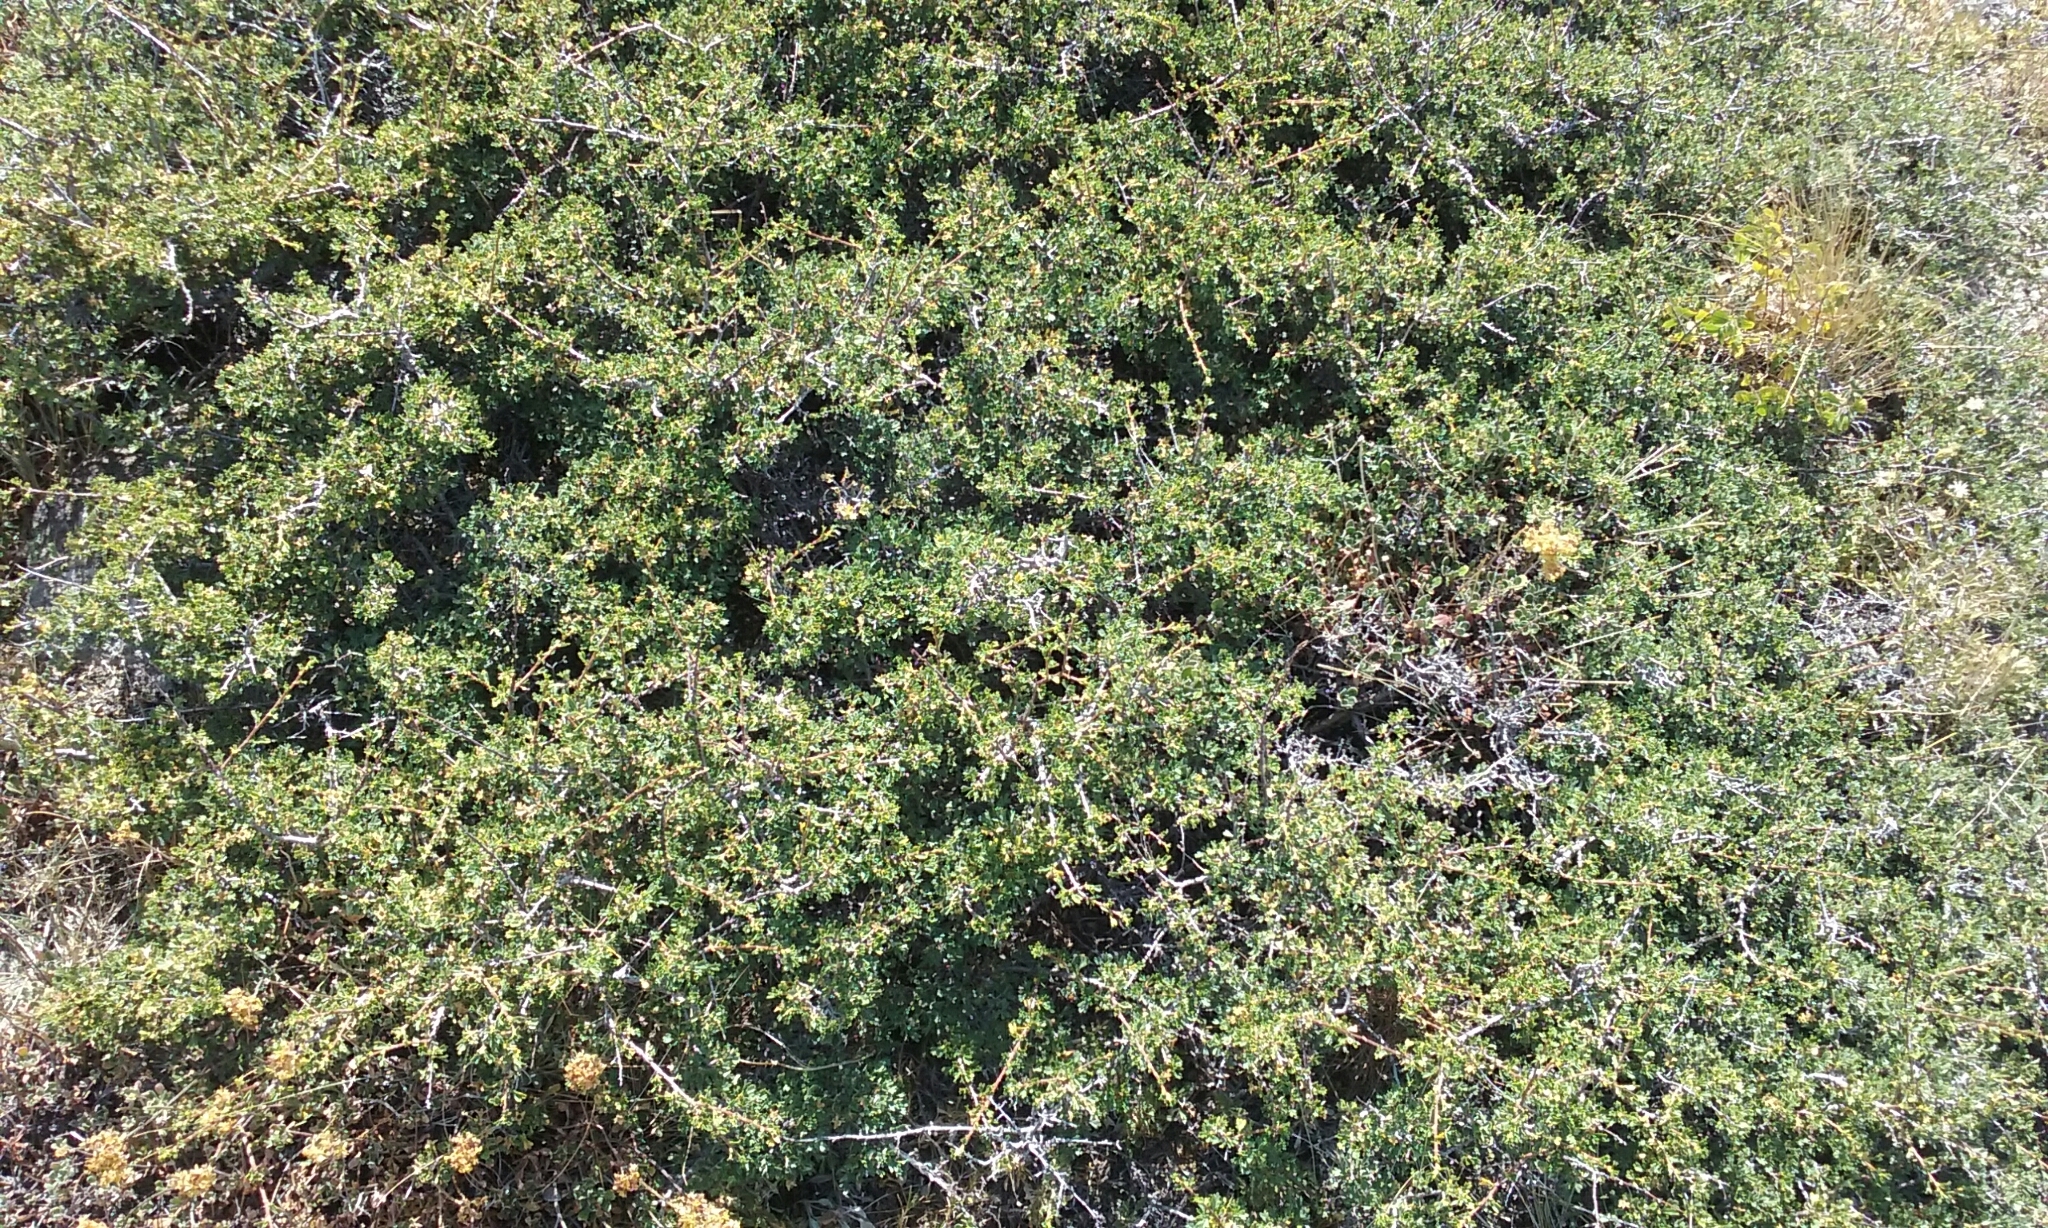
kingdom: Plantae
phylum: Tracheophyta
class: Magnoliopsida
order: Rosales
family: Rosaceae
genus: Purshia
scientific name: Purshia tridentata
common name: Antelope bitterbrush
